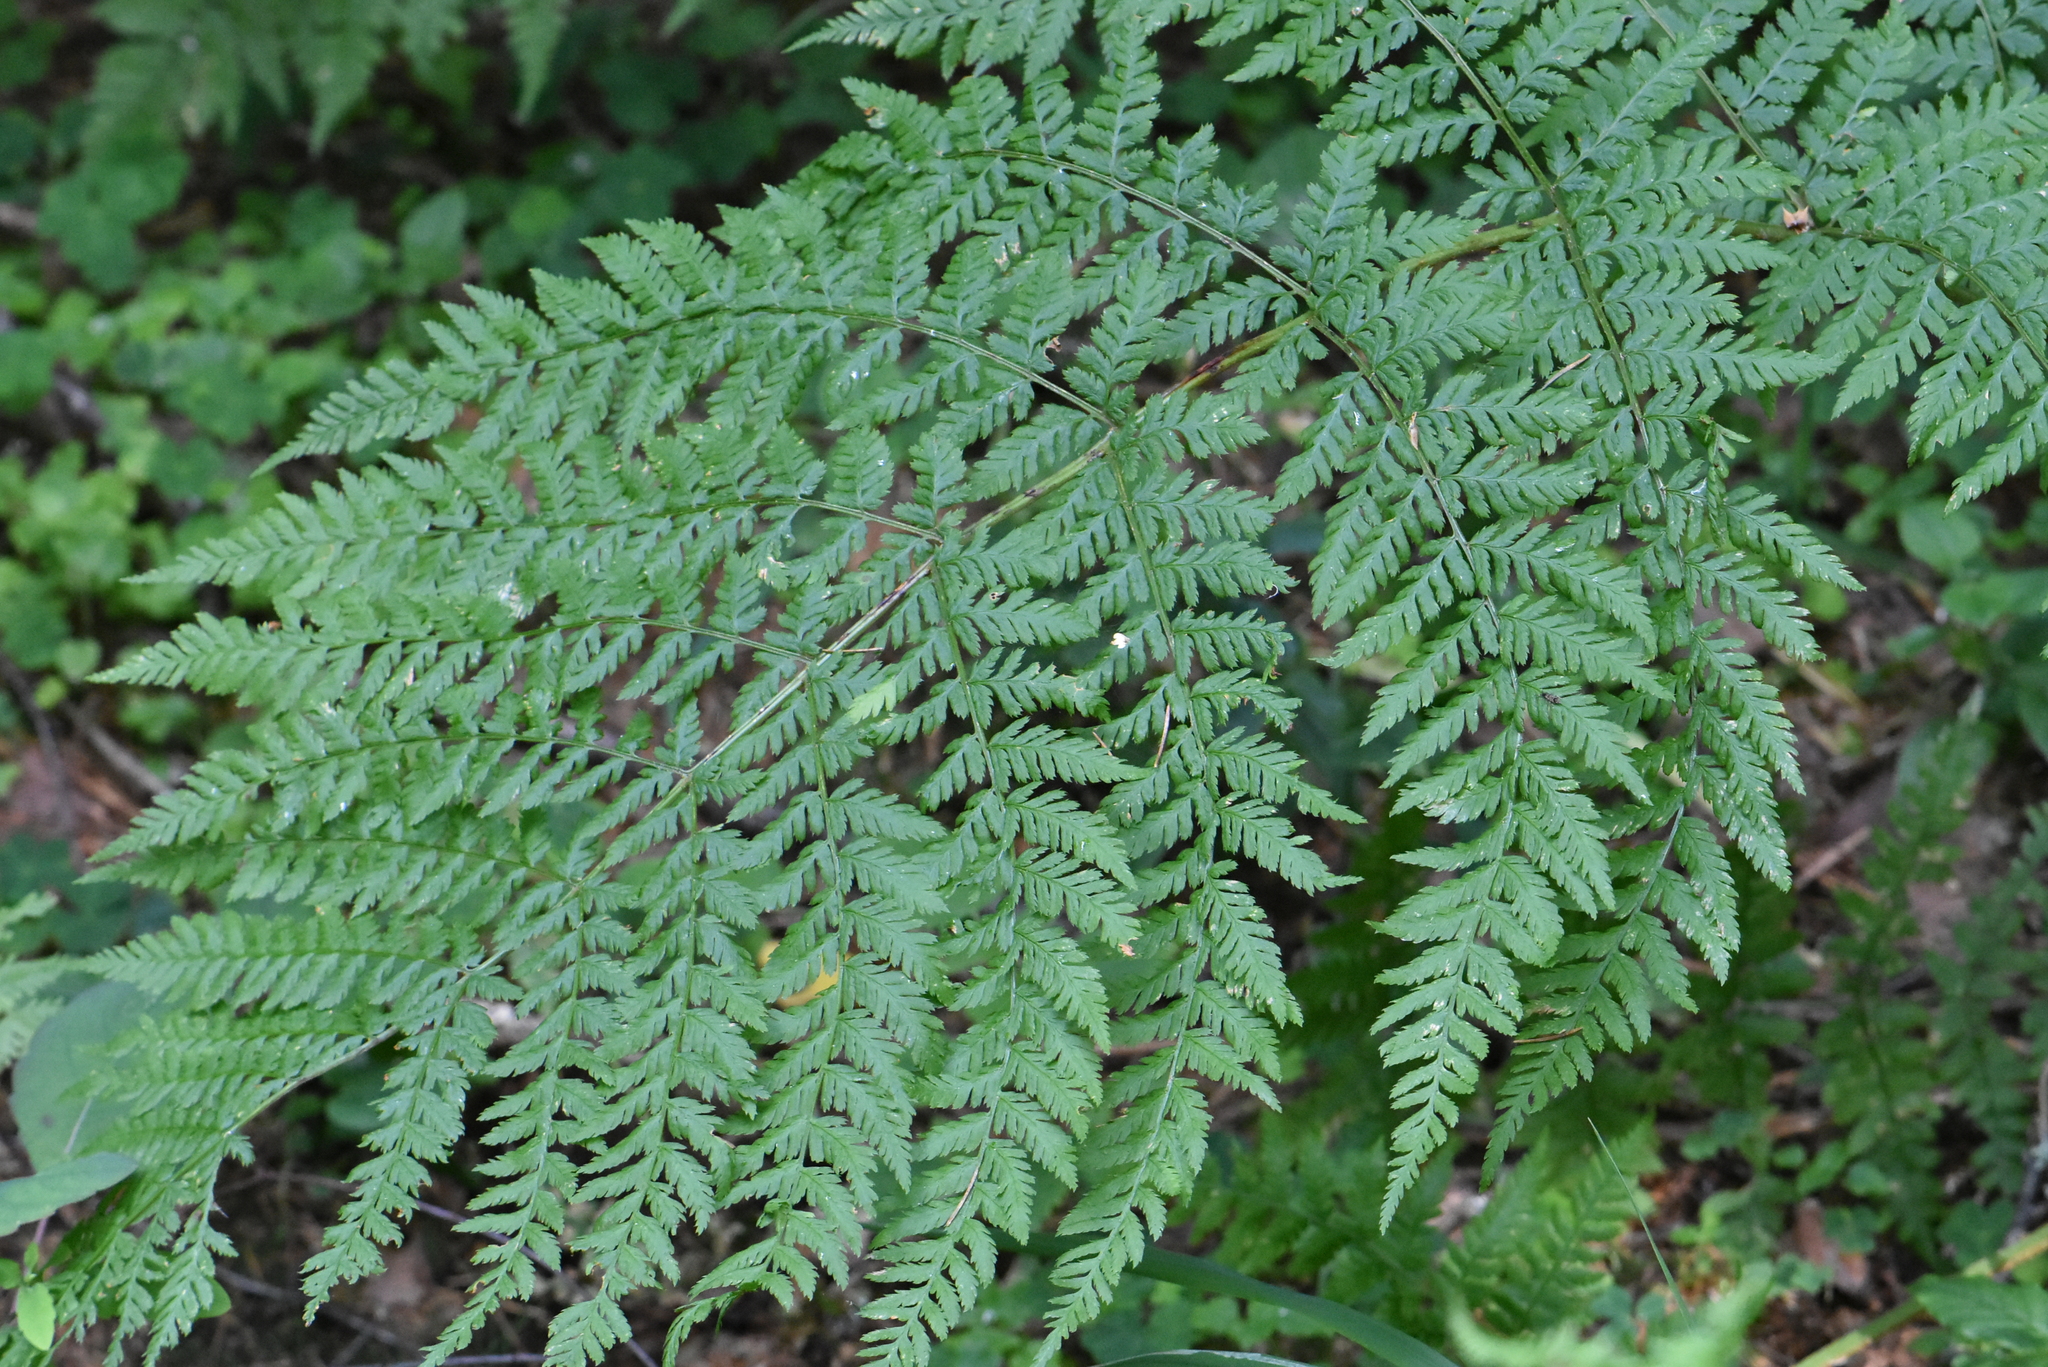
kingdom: Plantae
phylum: Tracheophyta
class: Polypodiopsida
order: Polypodiales
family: Dryopteridaceae
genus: Dryopteris
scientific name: Dryopteris expansa
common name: Northern buckler fern
